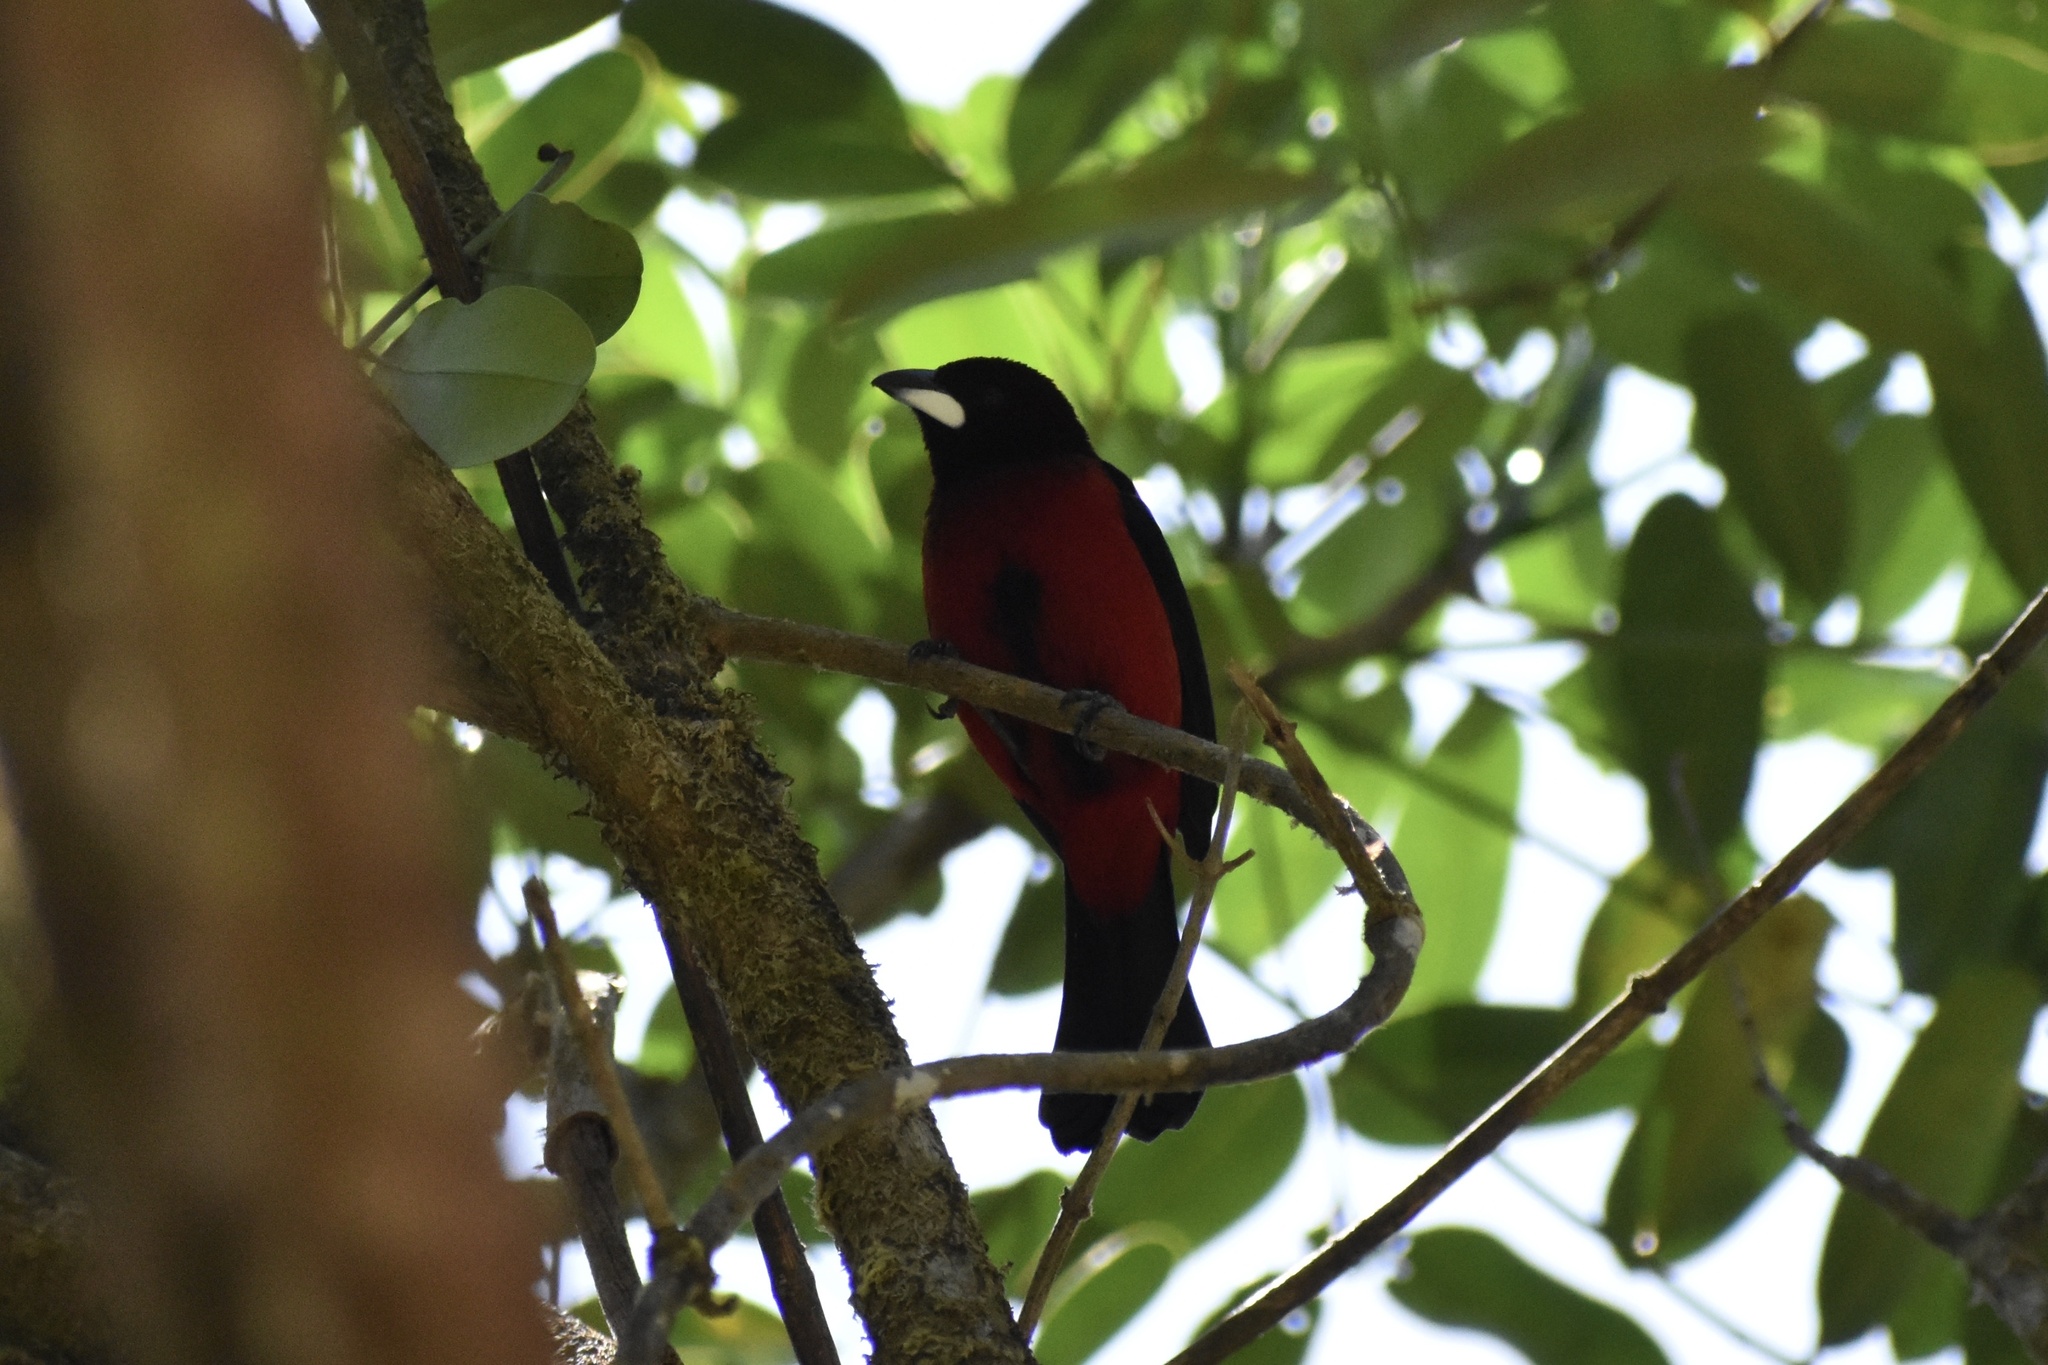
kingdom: Animalia
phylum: Chordata
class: Aves
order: Passeriformes
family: Thraupidae
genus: Ramphocelus
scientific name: Ramphocelus dimidiatus
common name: Crimson-backed tanager
